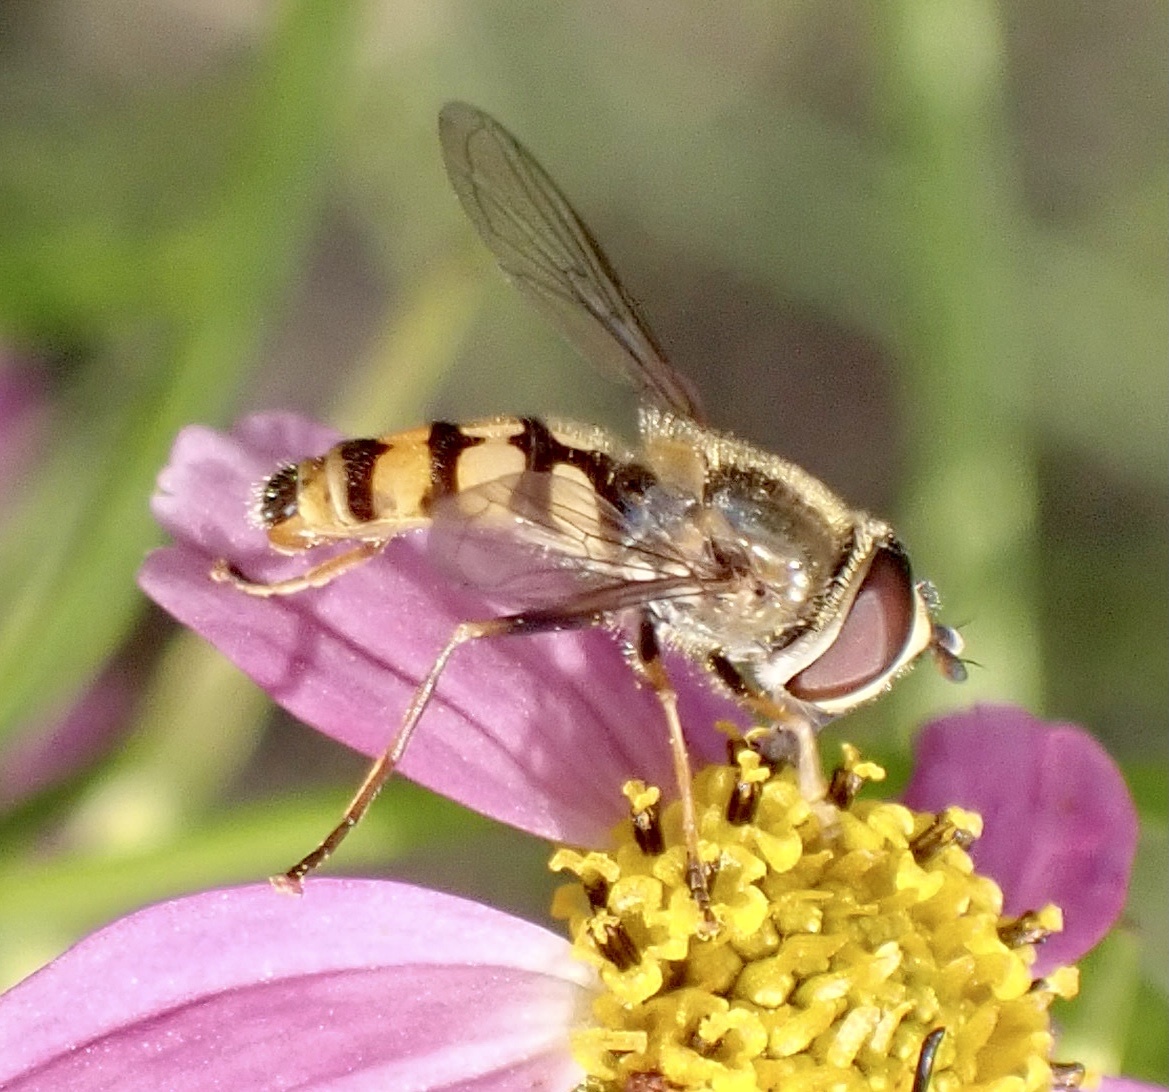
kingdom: Animalia
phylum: Arthropoda
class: Insecta
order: Diptera
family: Syrphidae
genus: Eupeodes
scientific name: Eupeodes corollae
